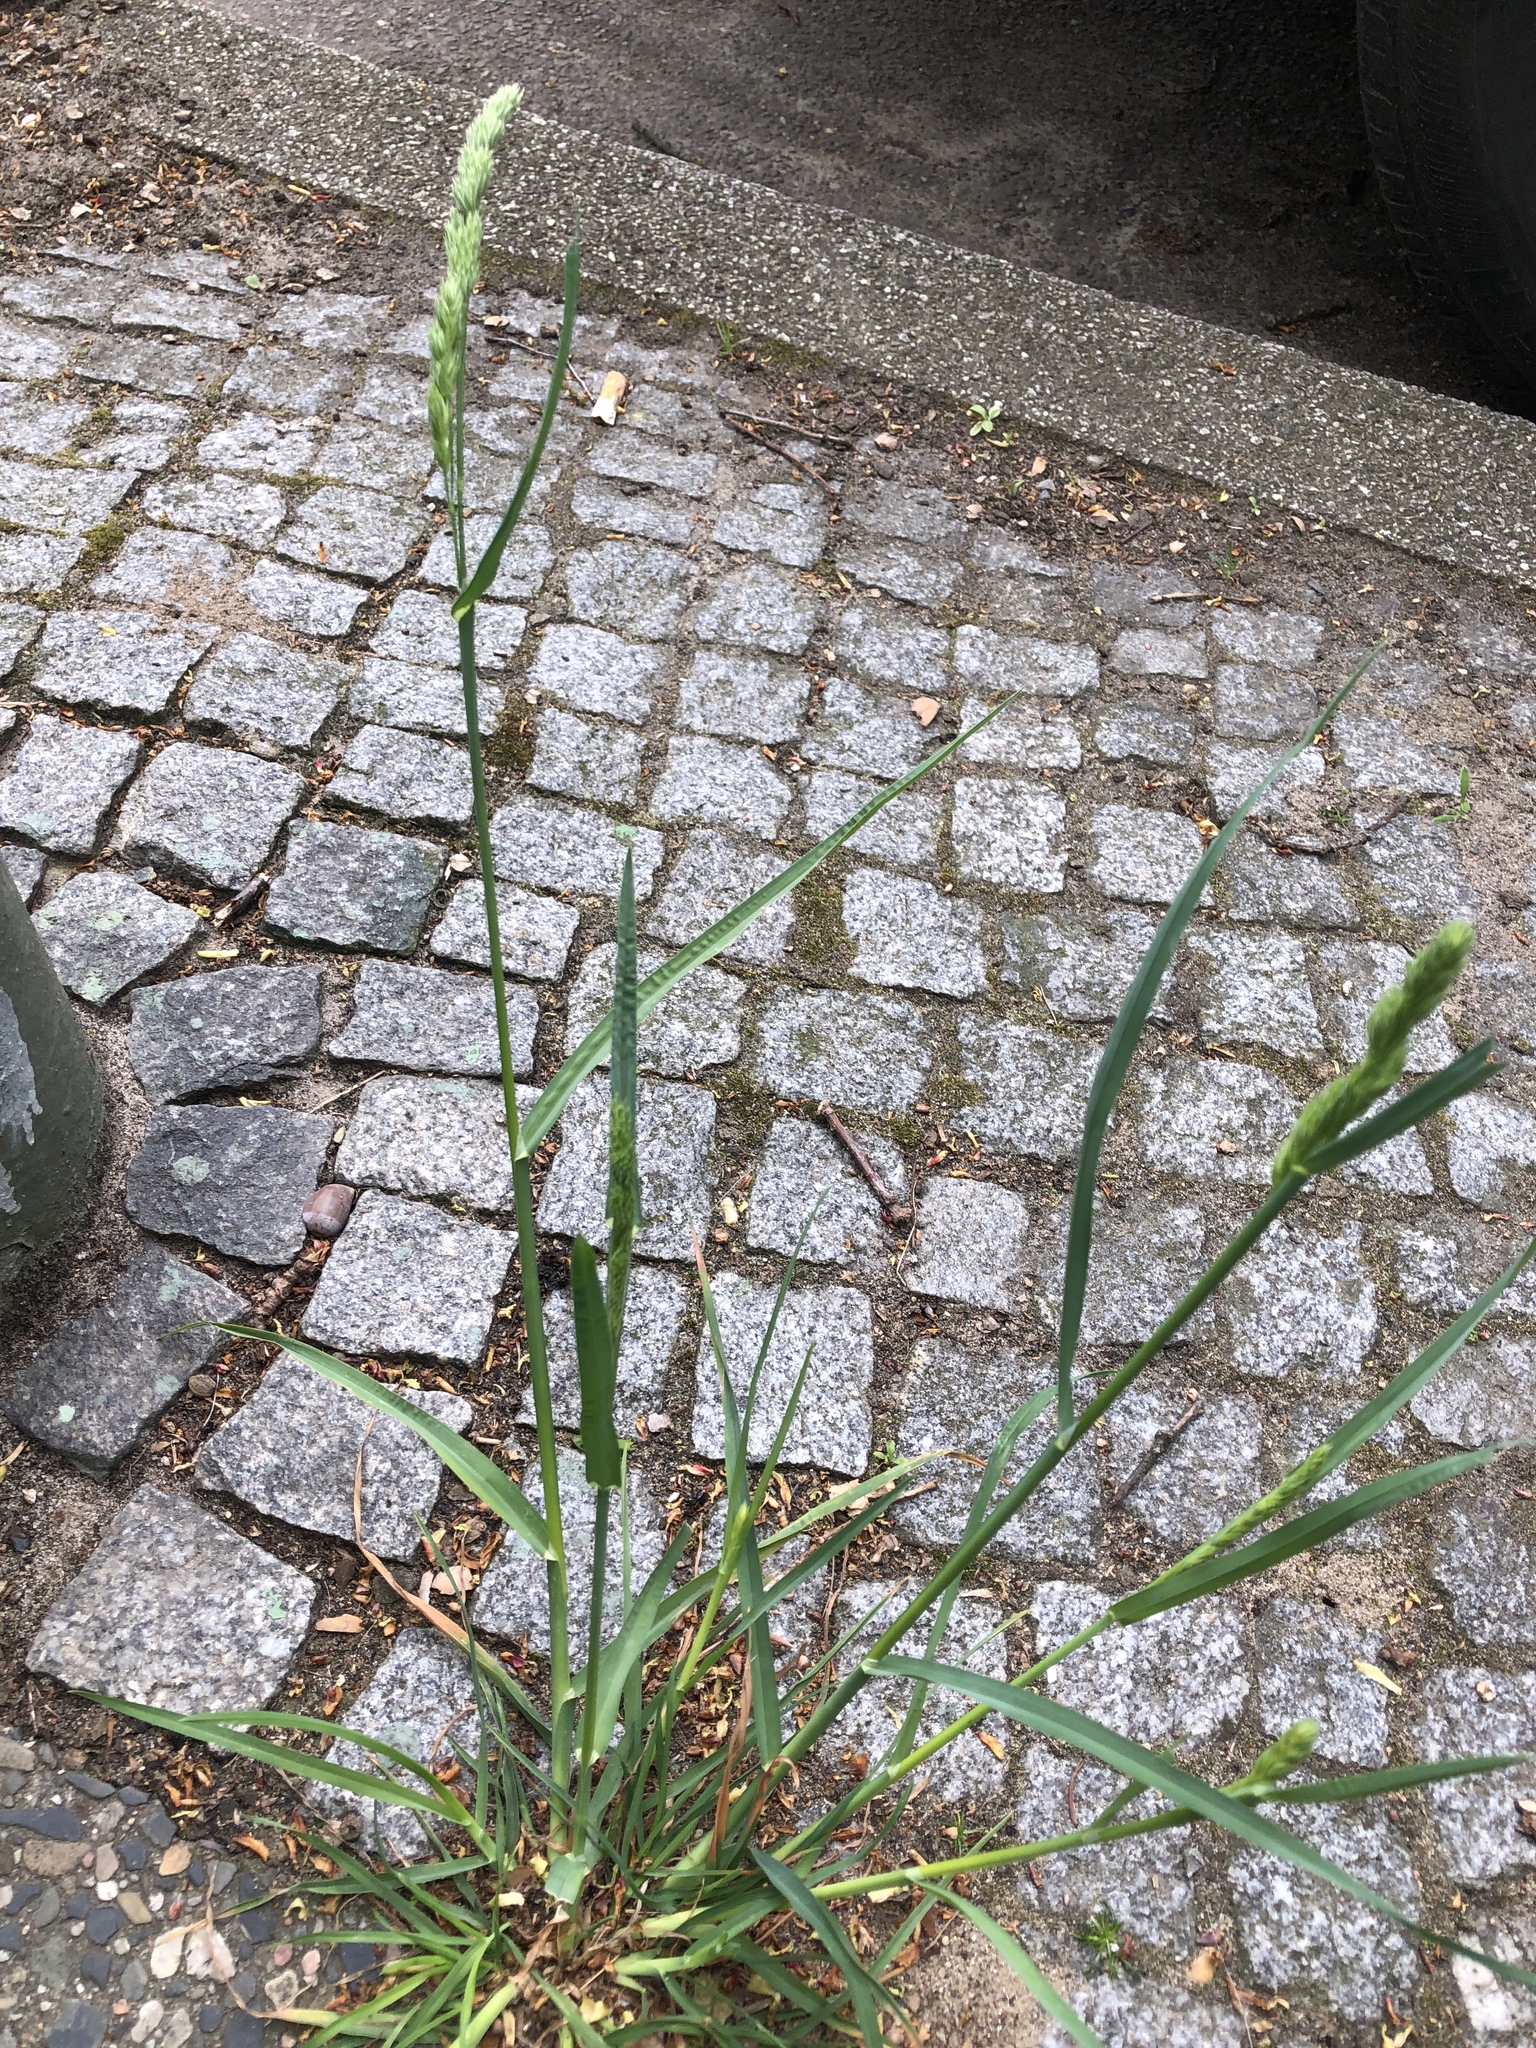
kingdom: Plantae
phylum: Tracheophyta
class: Liliopsida
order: Poales
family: Poaceae
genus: Dactylis
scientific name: Dactylis glomerata
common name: Orchardgrass
